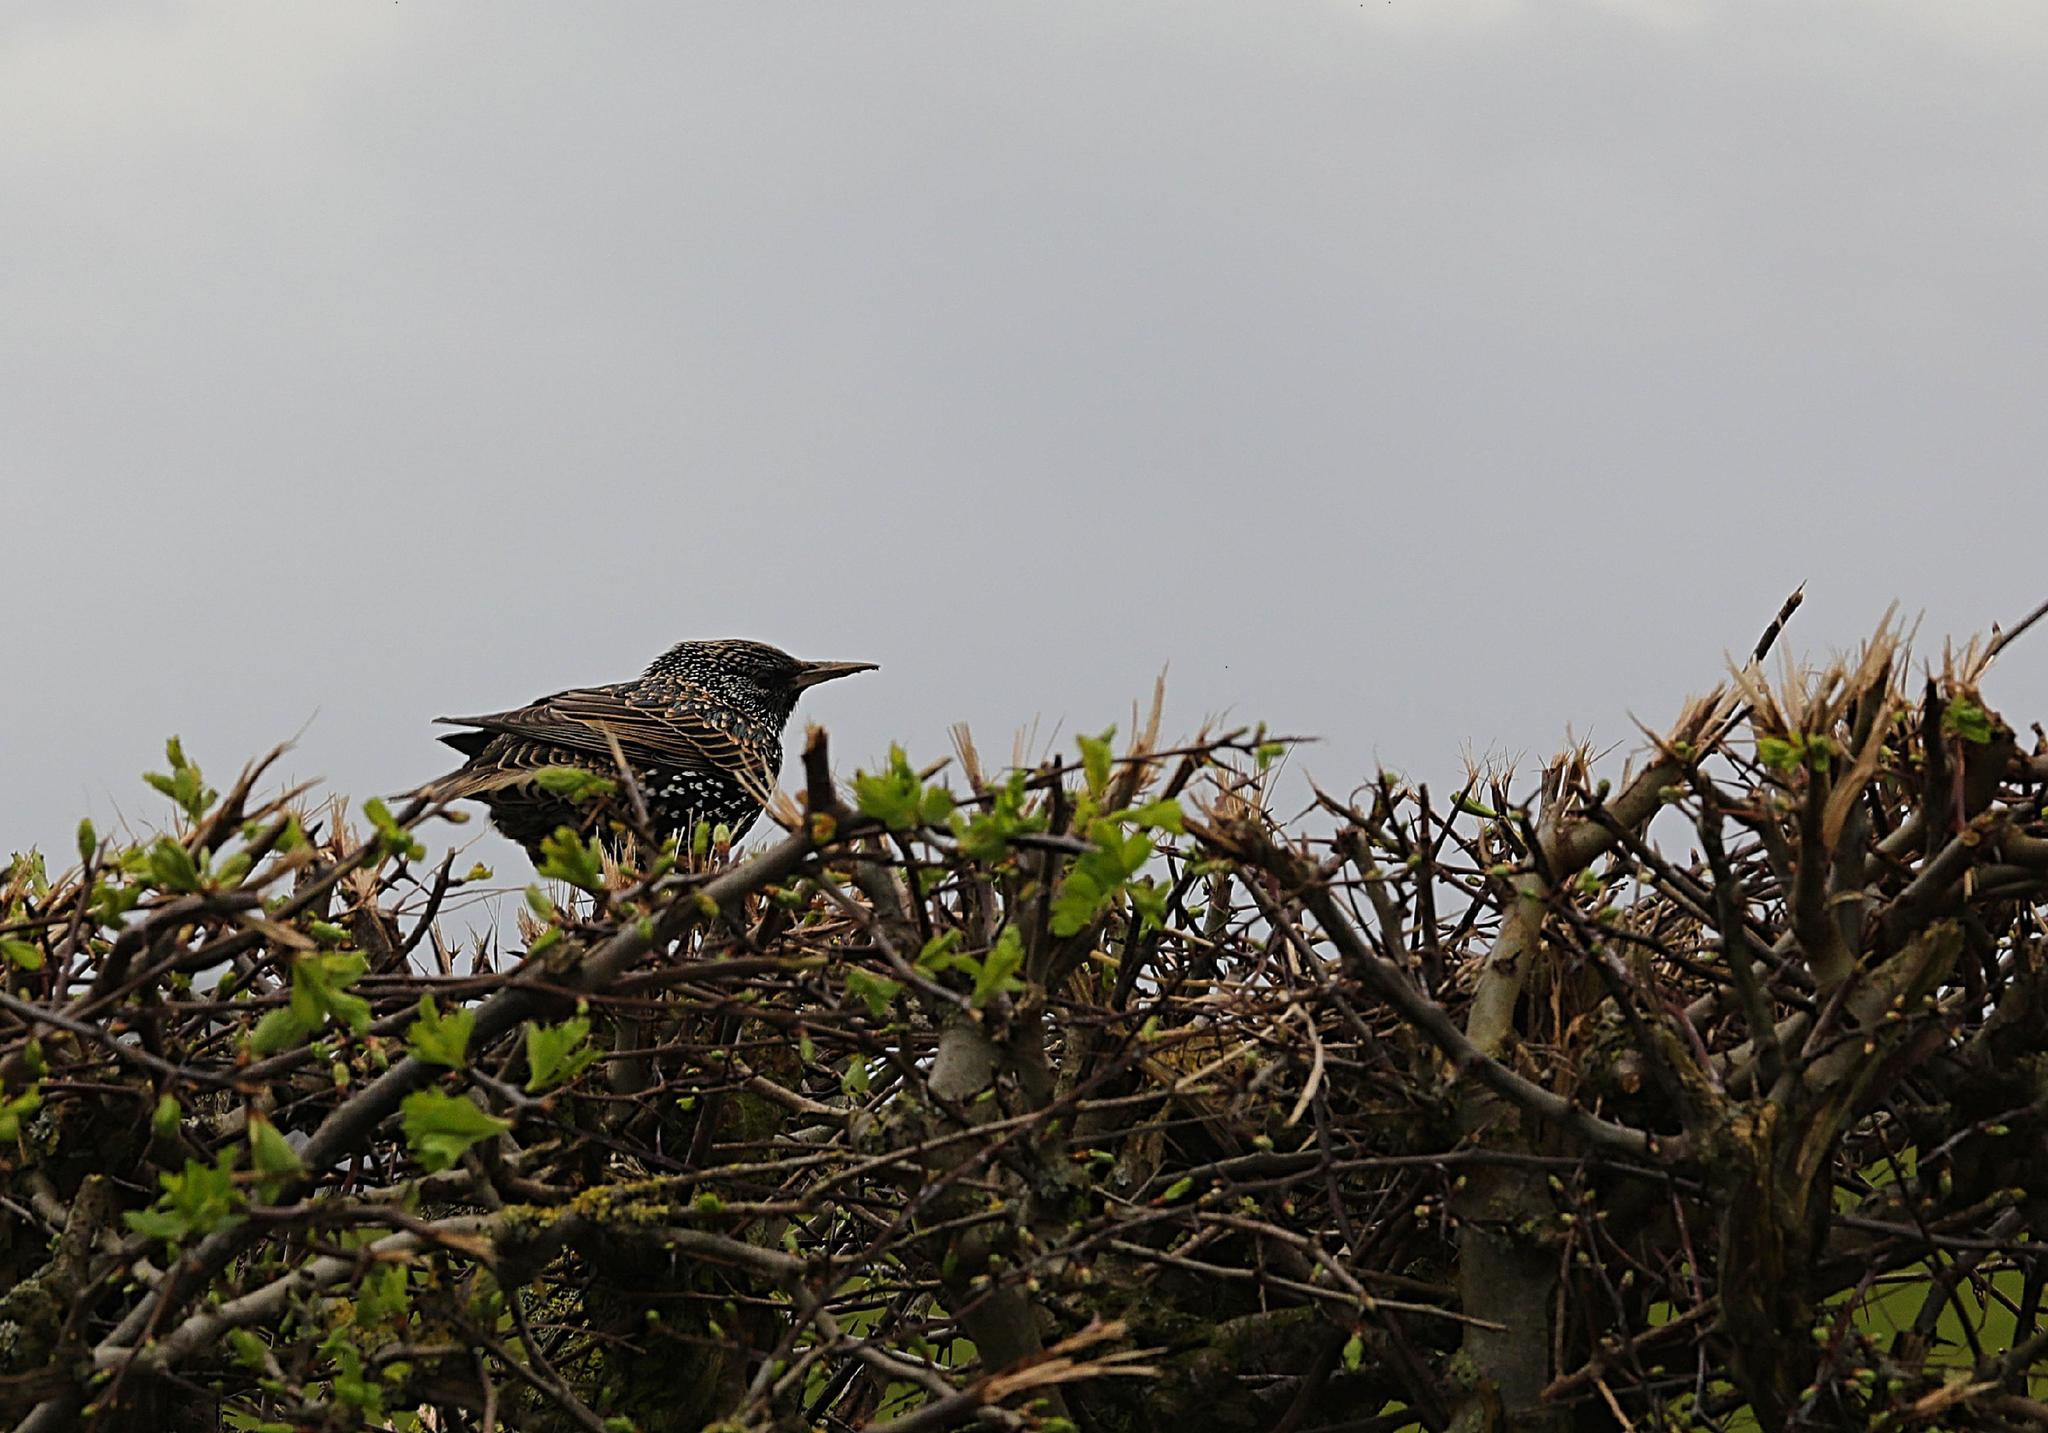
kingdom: Animalia
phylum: Chordata
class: Aves
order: Passeriformes
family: Sturnidae
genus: Sturnus
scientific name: Sturnus vulgaris
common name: Common starling
